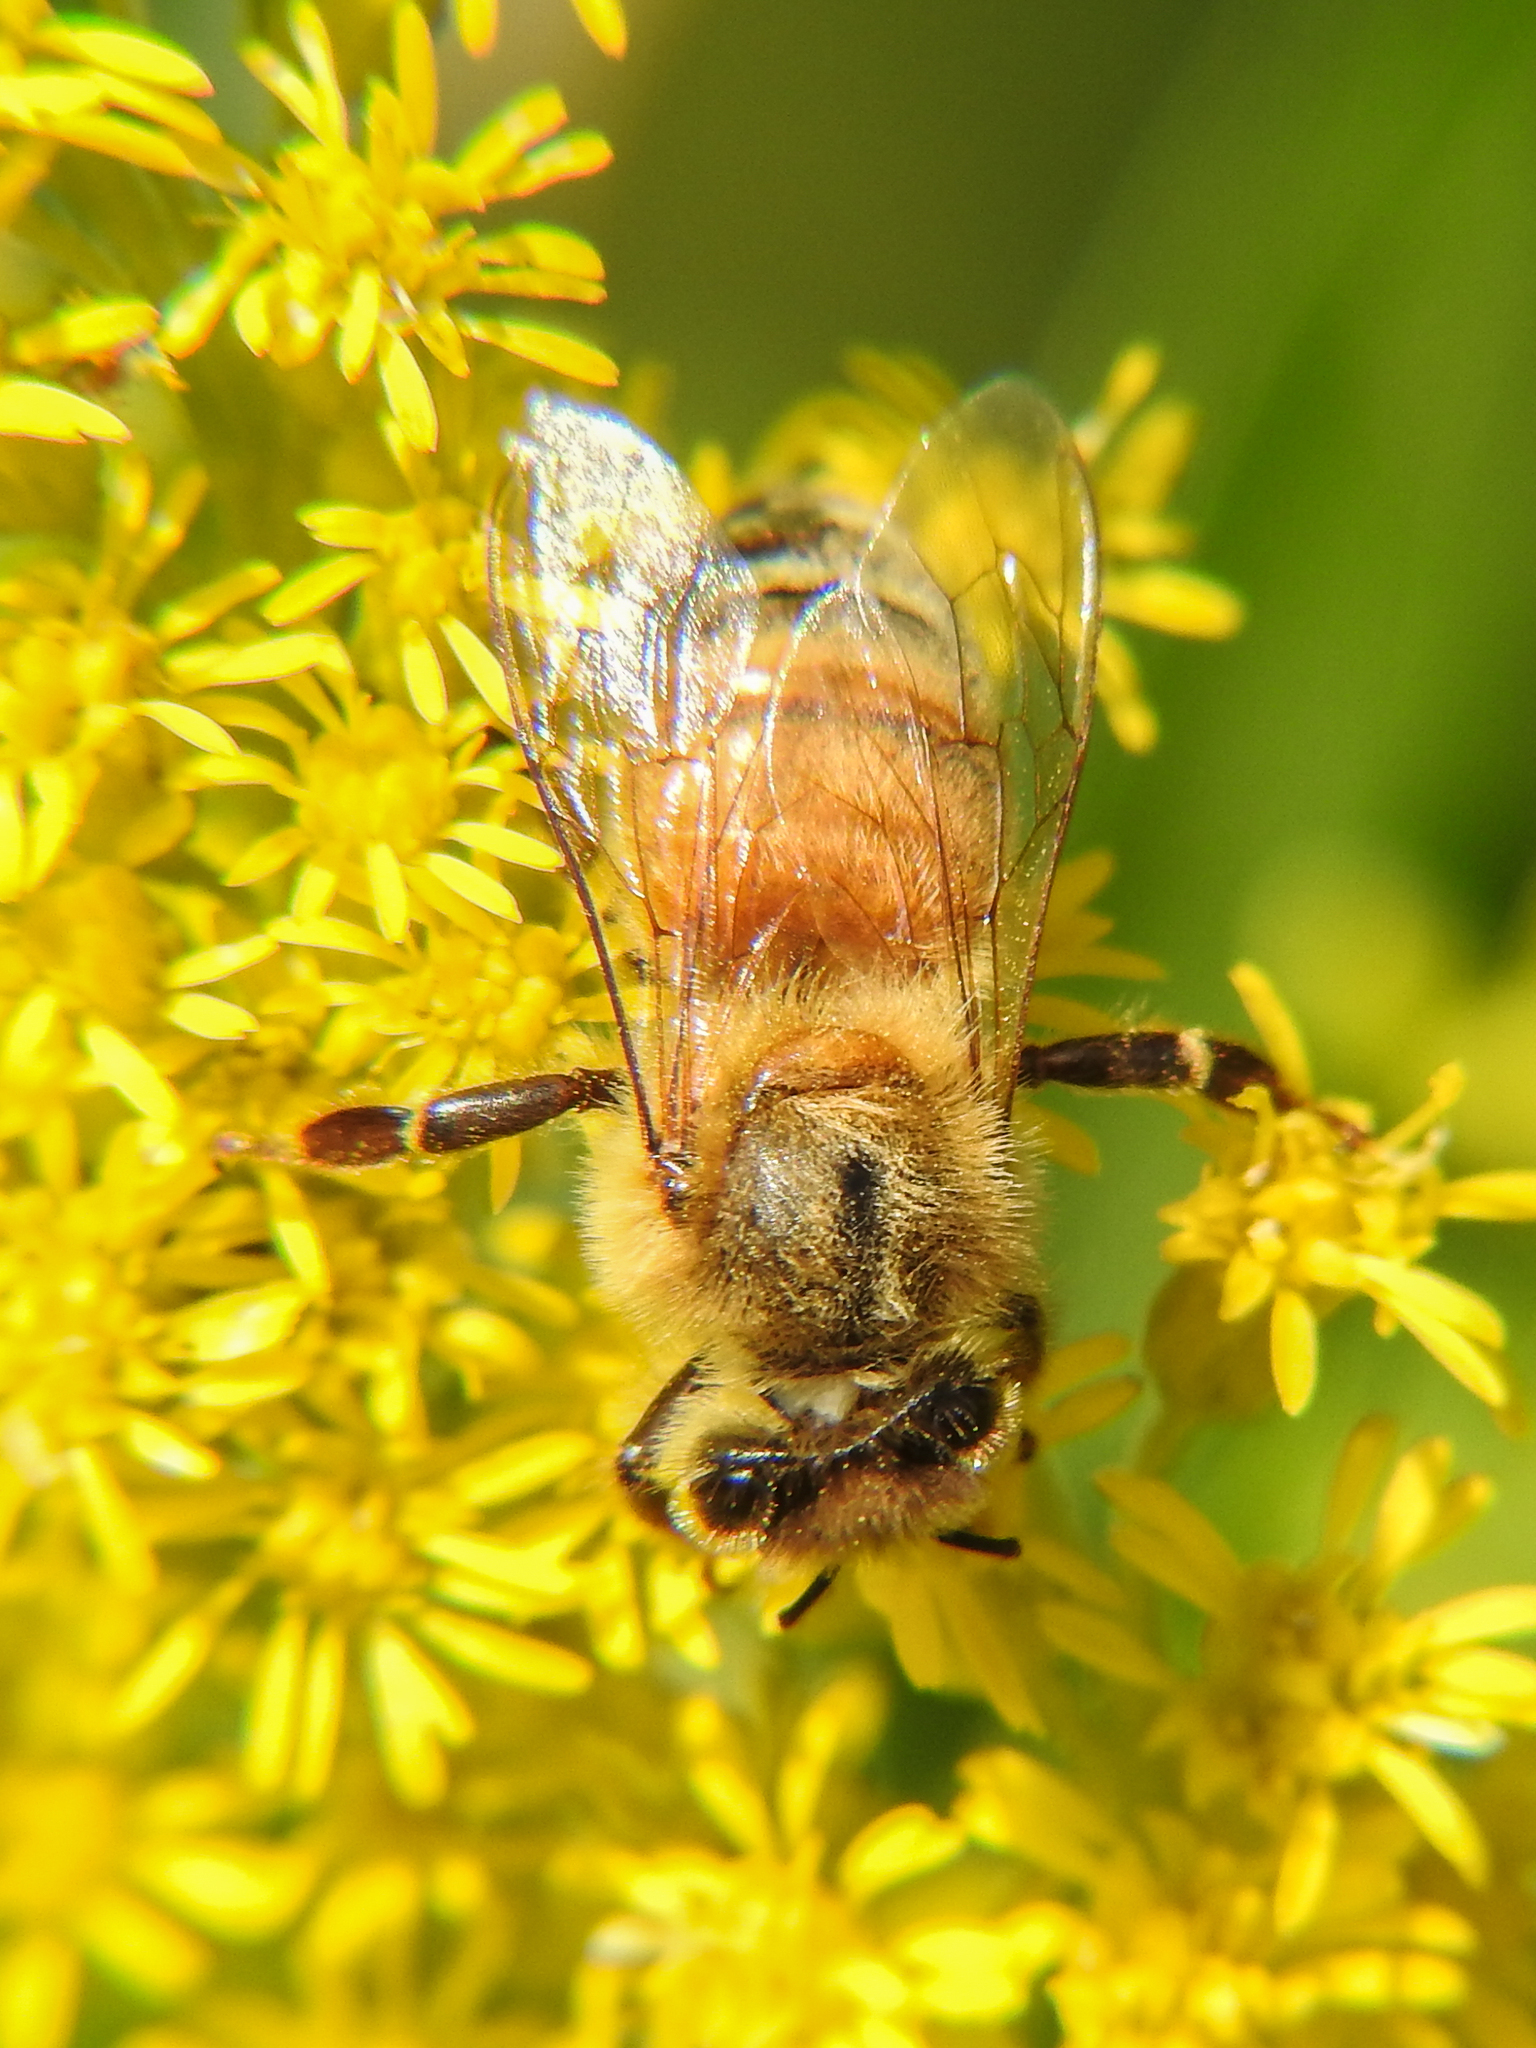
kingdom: Animalia
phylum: Arthropoda
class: Insecta
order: Hymenoptera
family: Apidae
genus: Apis
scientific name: Apis mellifera
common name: Honey bee
